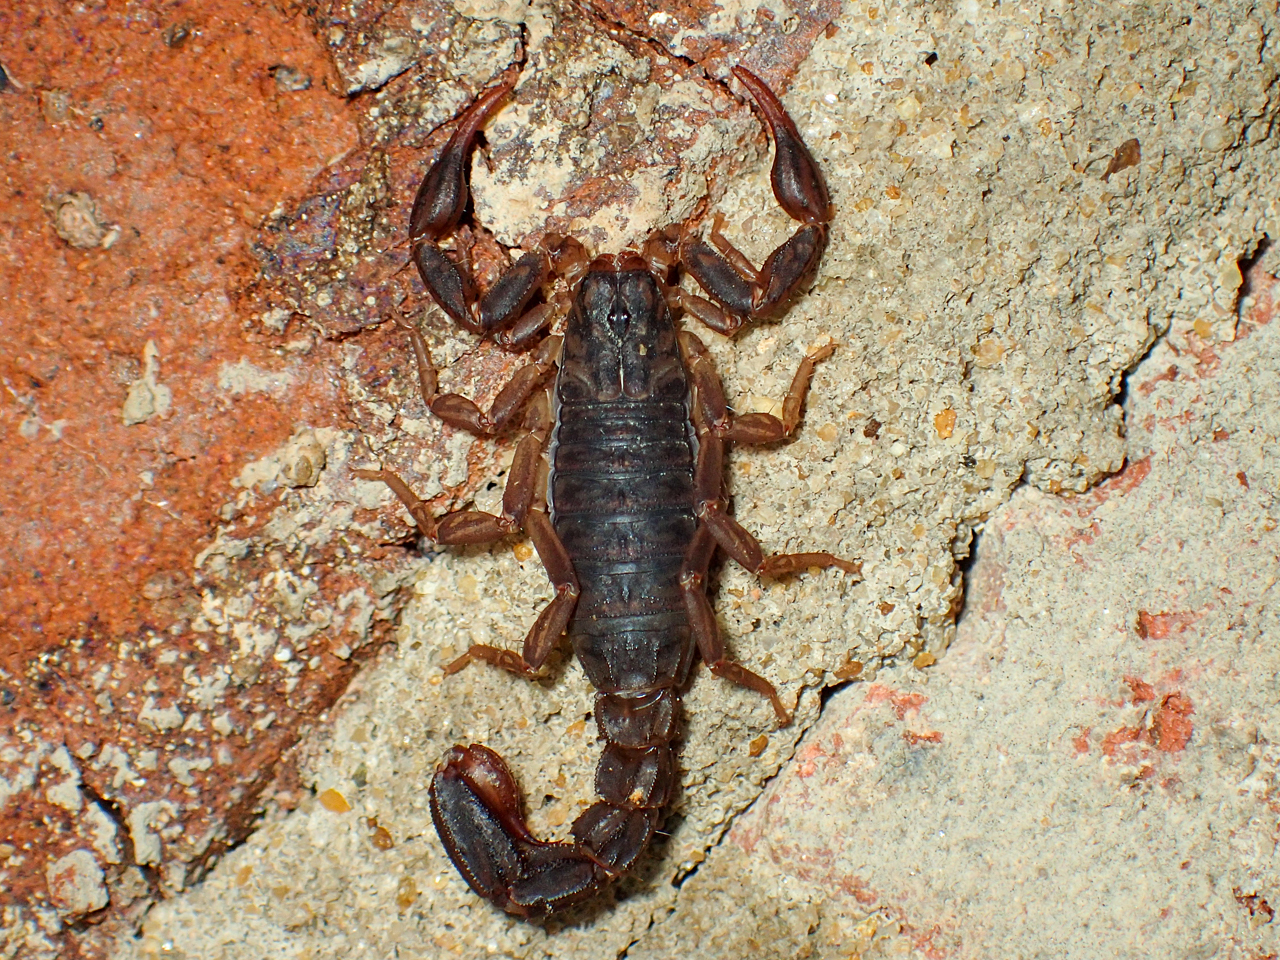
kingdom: Animalia
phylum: Arthropoda
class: Arachnida
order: Scorpiones
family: Vaejovidae
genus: Vaejovis
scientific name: Vaejovis carolinianus
